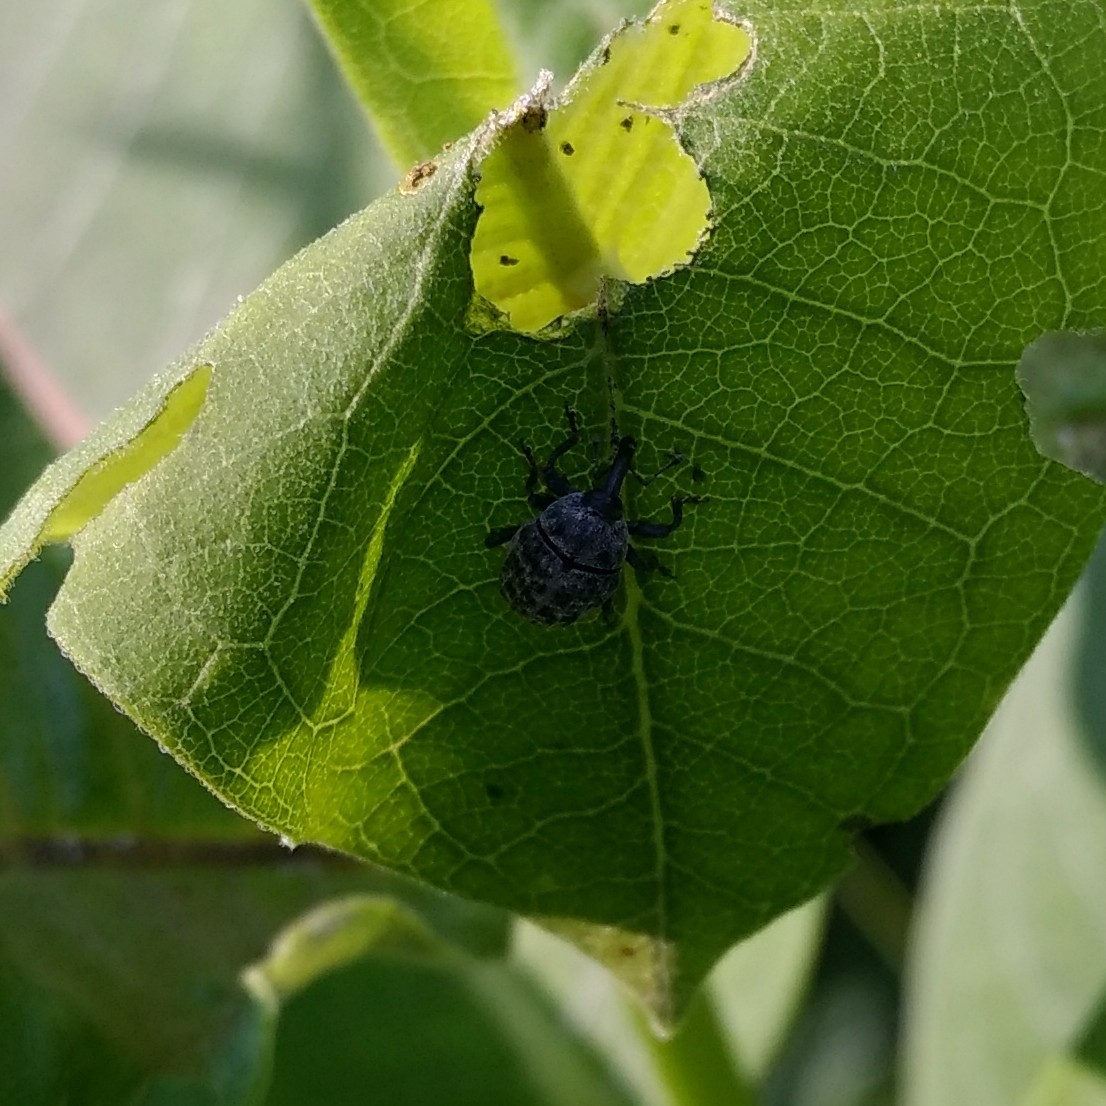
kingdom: Animalia
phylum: Arthropoda
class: Insecta
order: Coleoptera
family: Curculionidae
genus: Rhyssomatus
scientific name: Rhyssomatus lineaticollis
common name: Milkweed stem weevil
